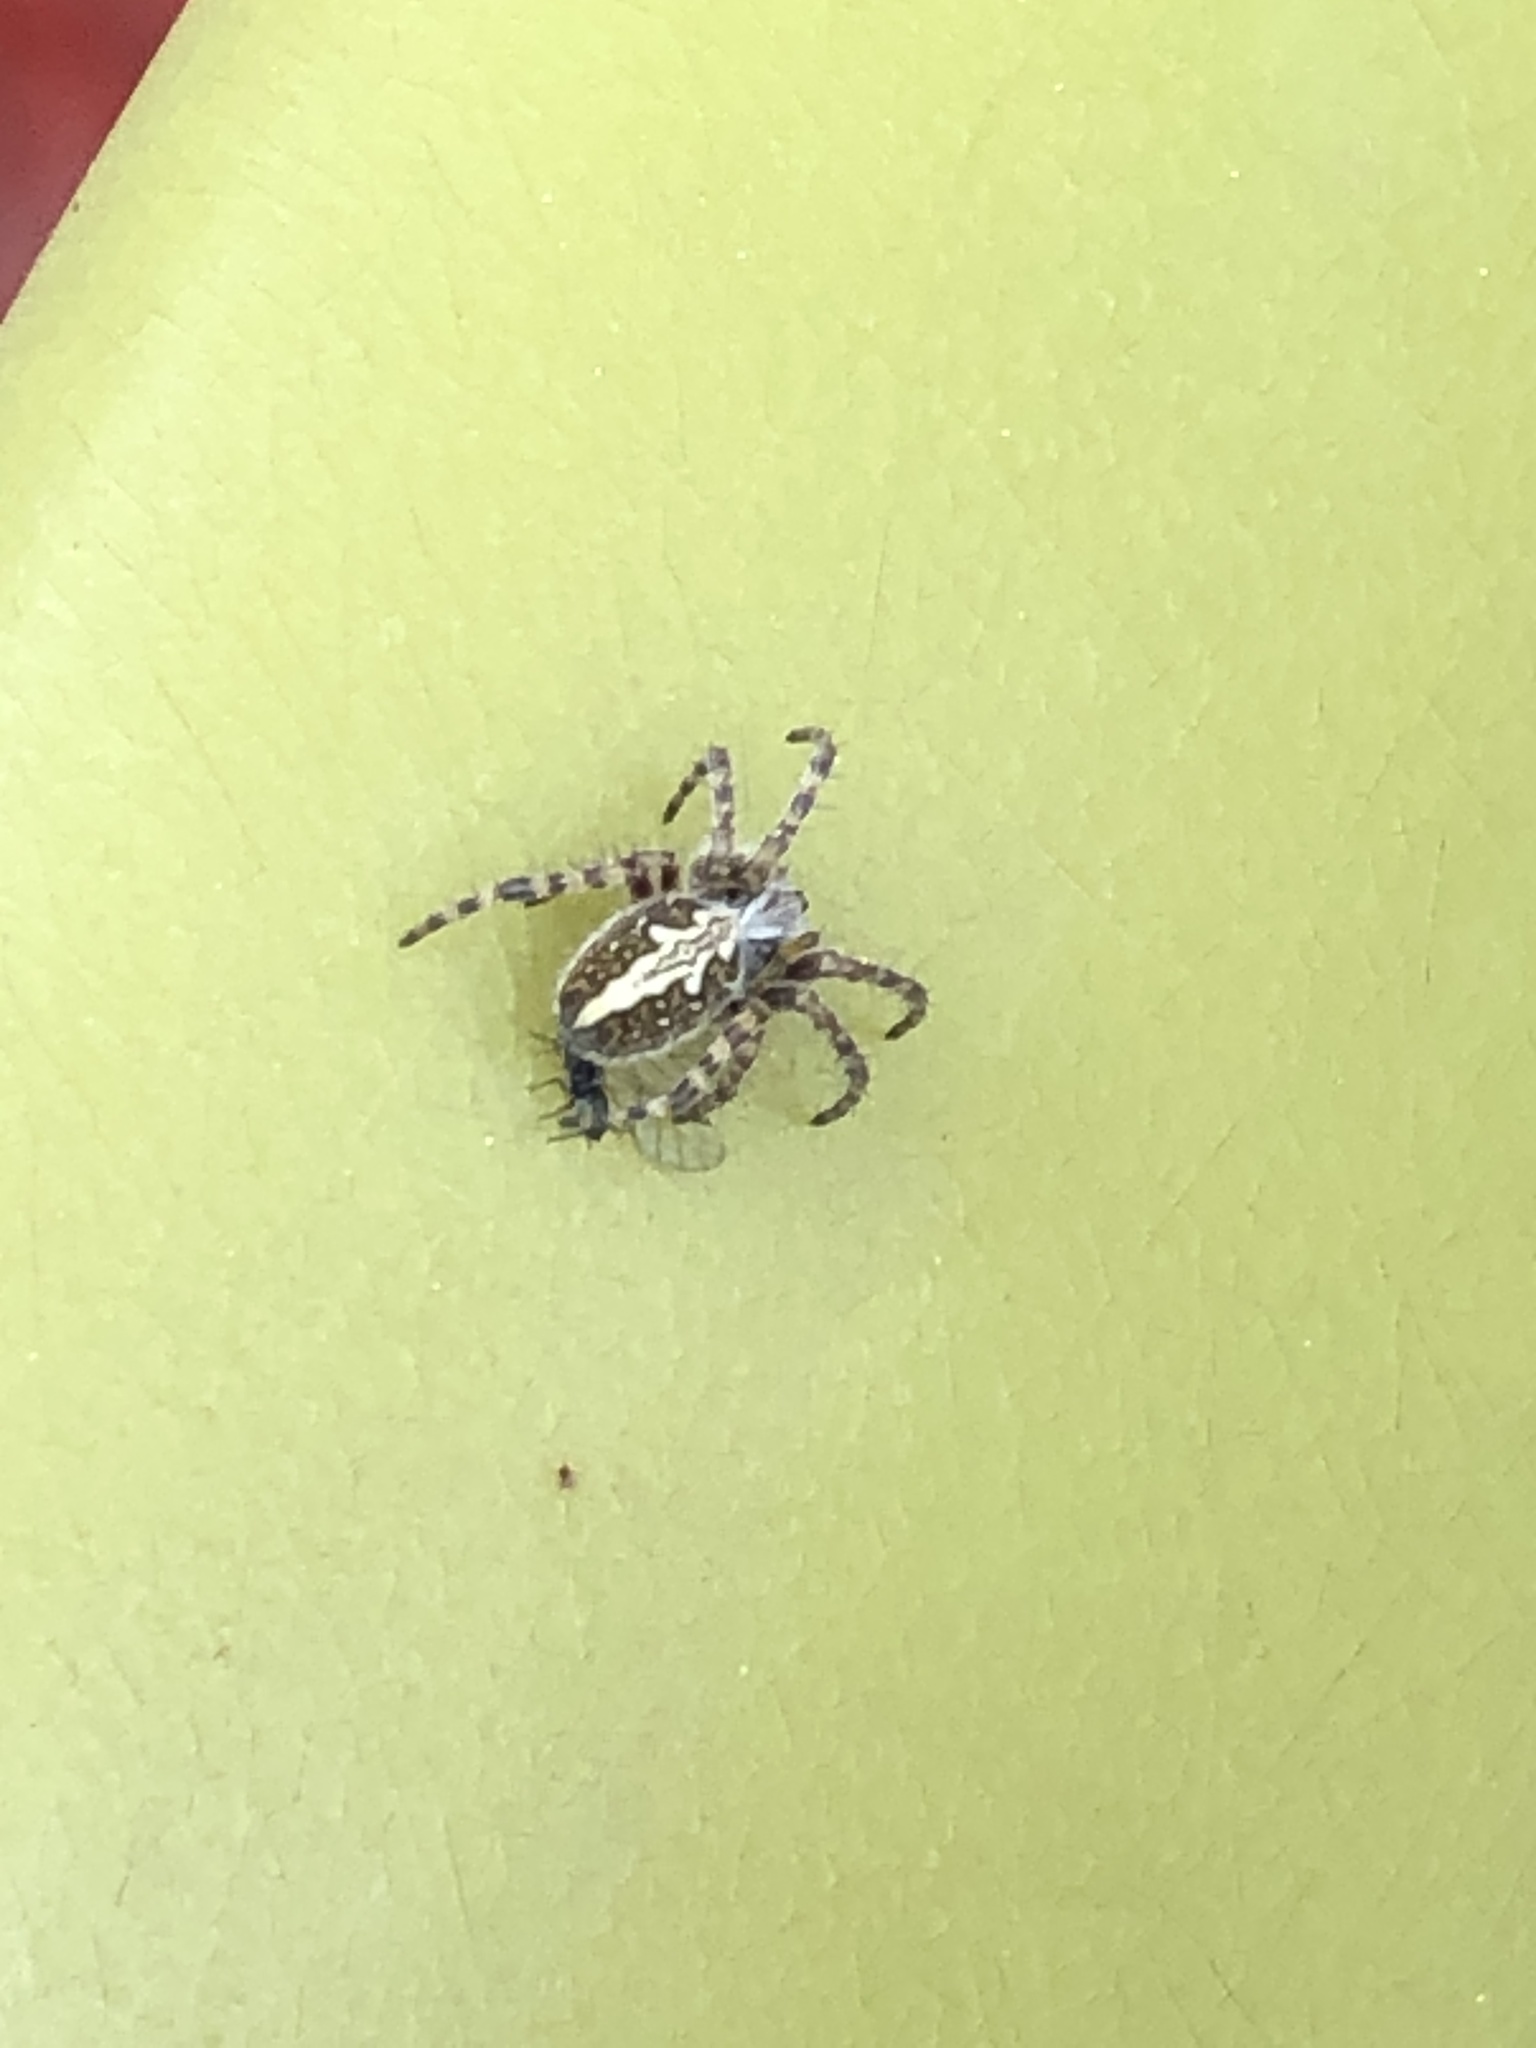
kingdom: Animalia
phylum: Arthropoda
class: Arachnida
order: Araneae
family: Araneidae
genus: Aculepeira
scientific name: Aculepeira ceropegia
